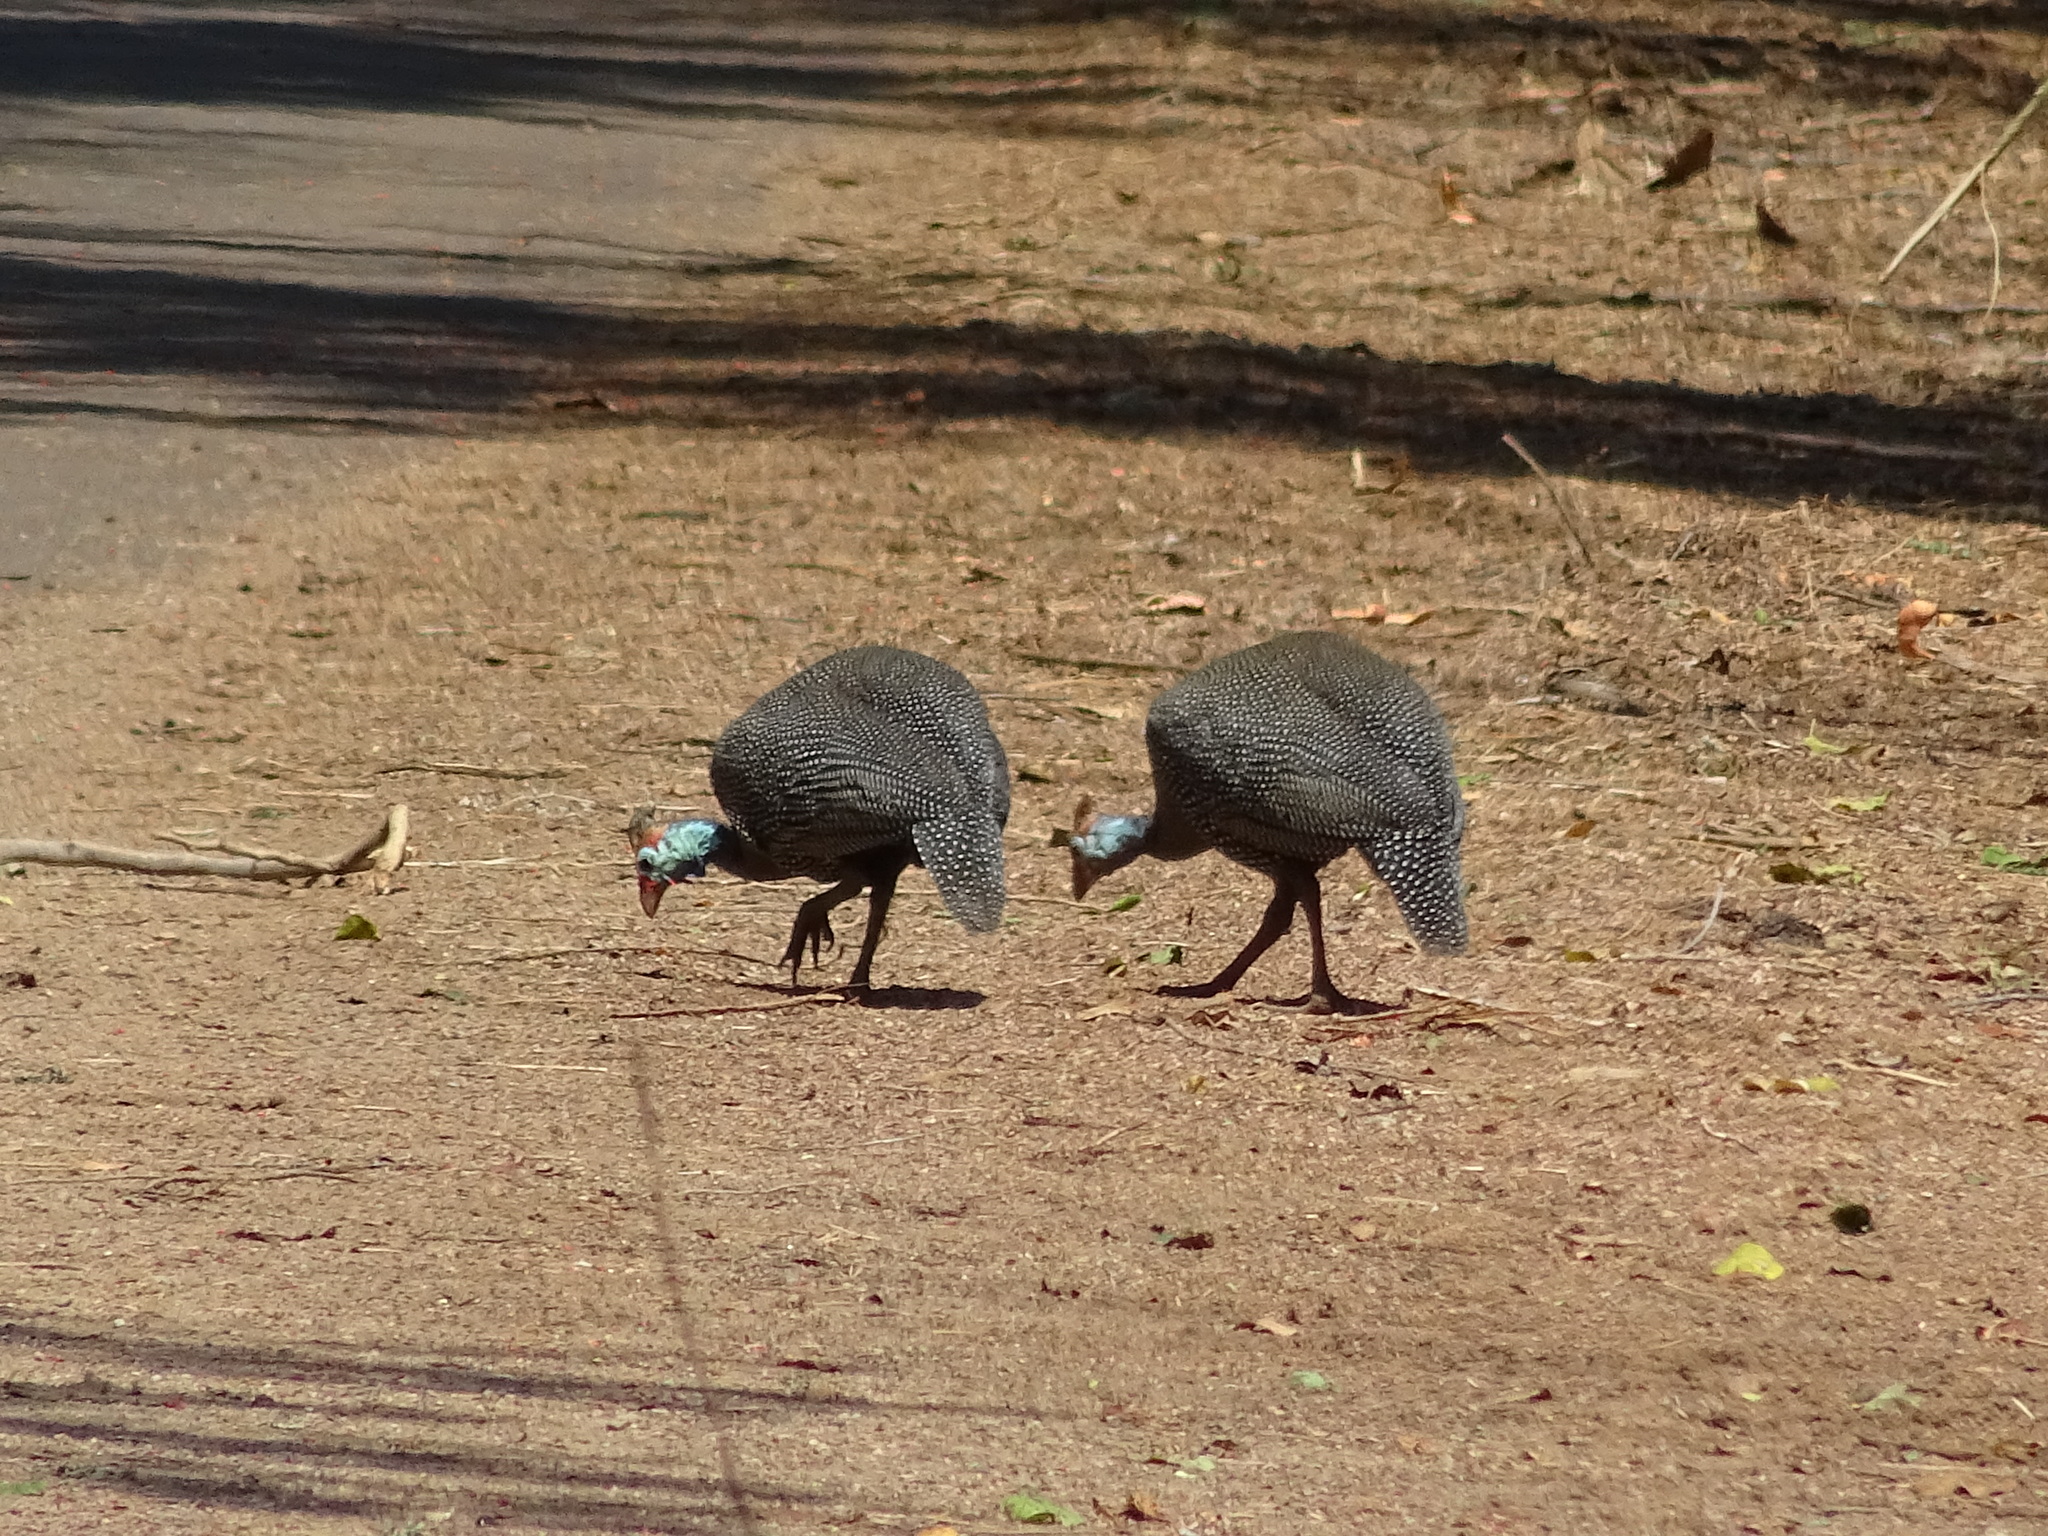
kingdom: Animalia
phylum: Chordata
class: Aves
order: Galliformes
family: Numididae
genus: Numida
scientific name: Numida meleagris
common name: Helmeted guineafowl
